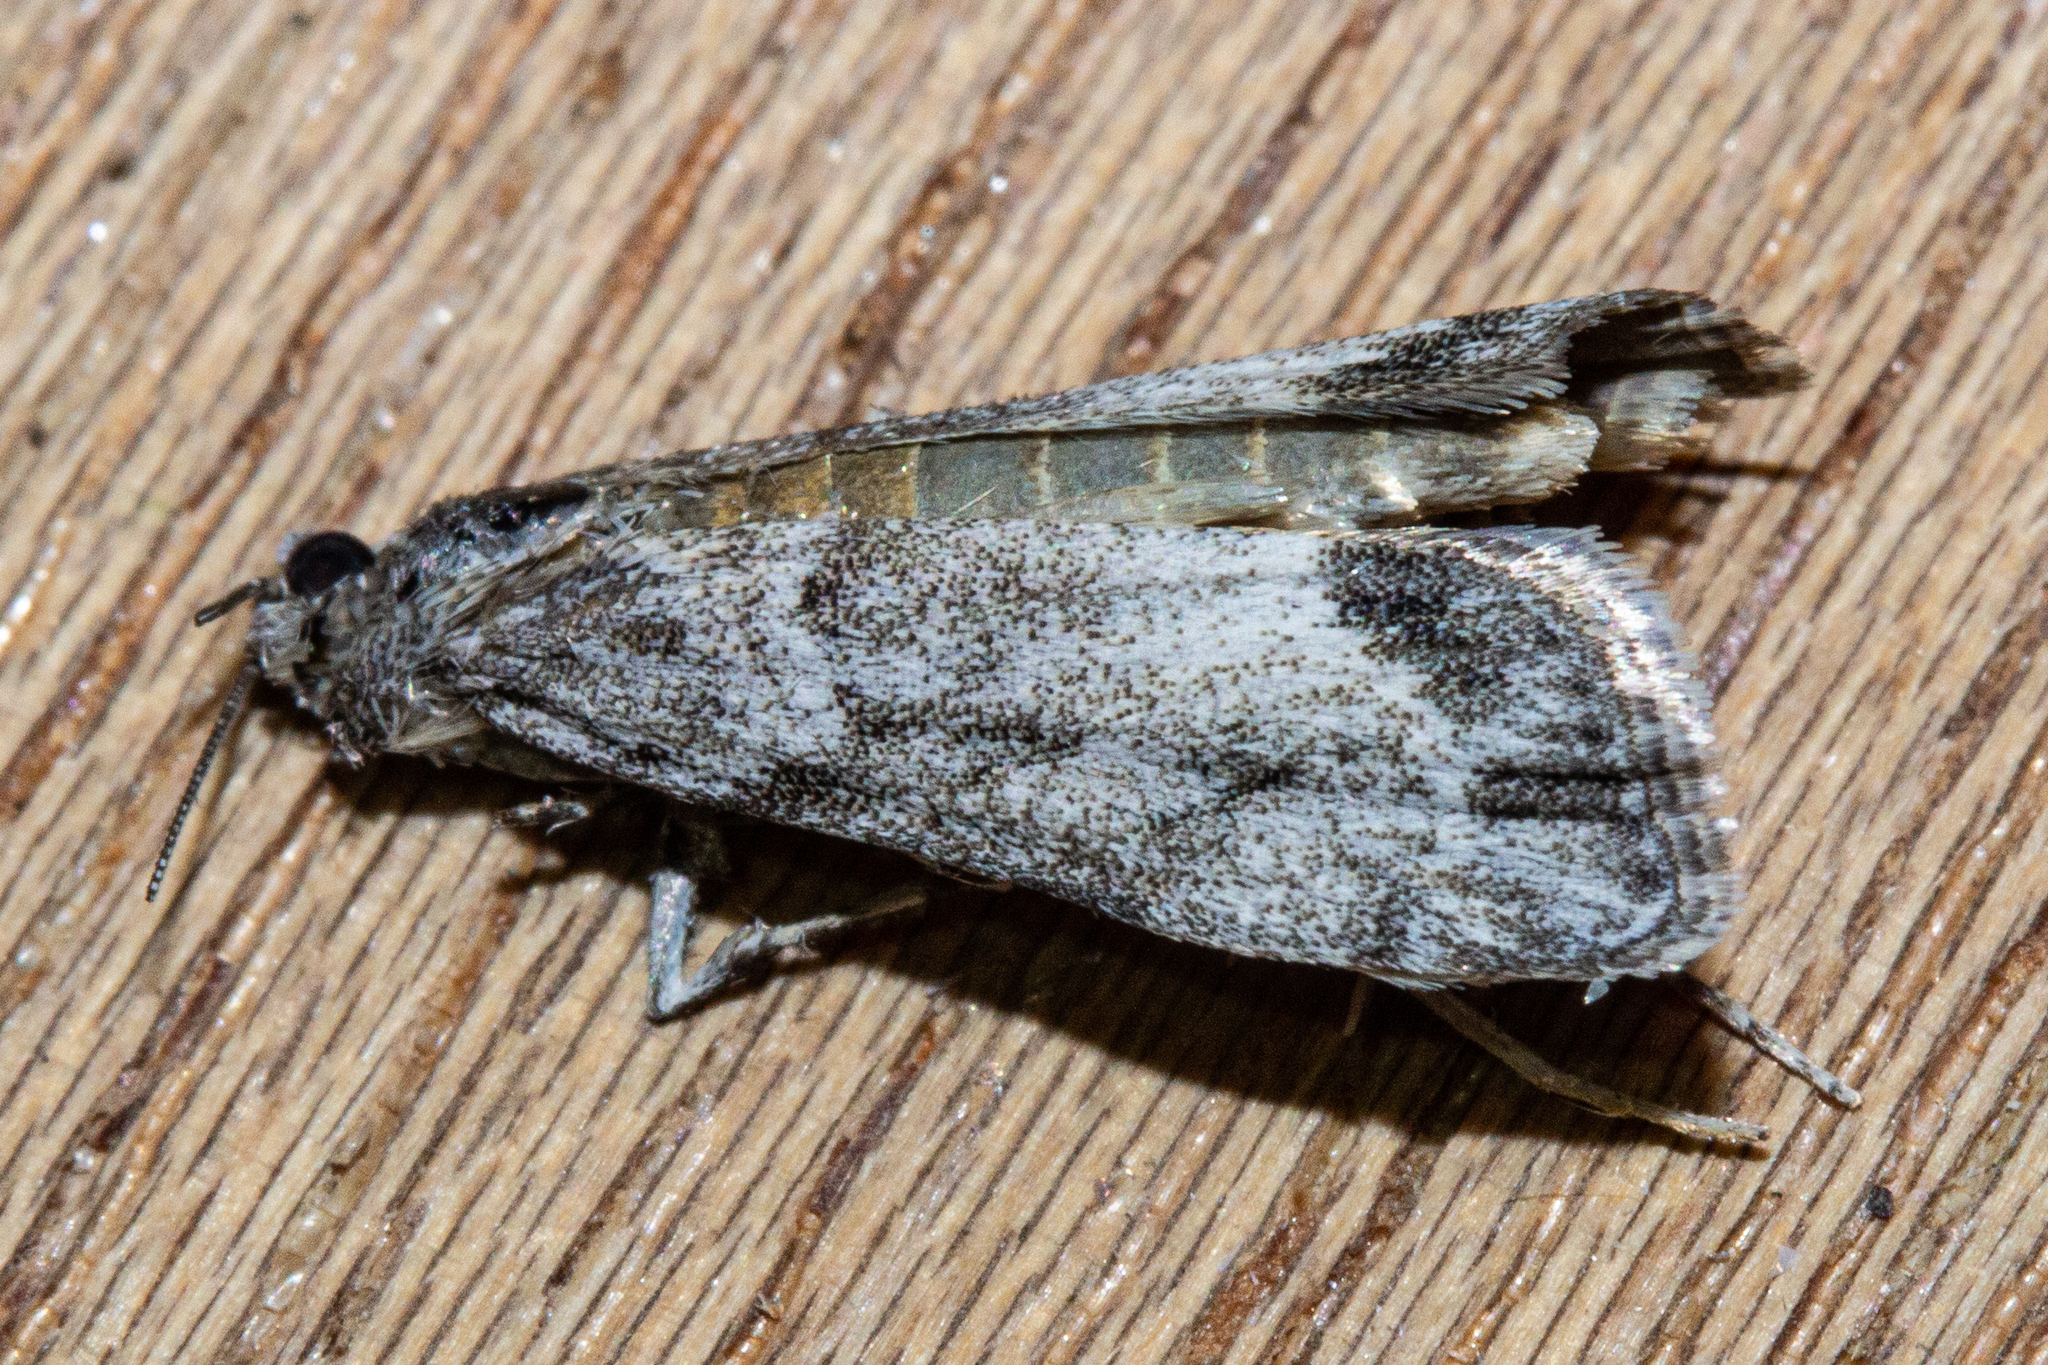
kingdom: Animalia
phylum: Arthropoda
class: Insecta
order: Lepidoptera
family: Crambidae
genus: Eudonia
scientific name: Eudonia rakaiensis
